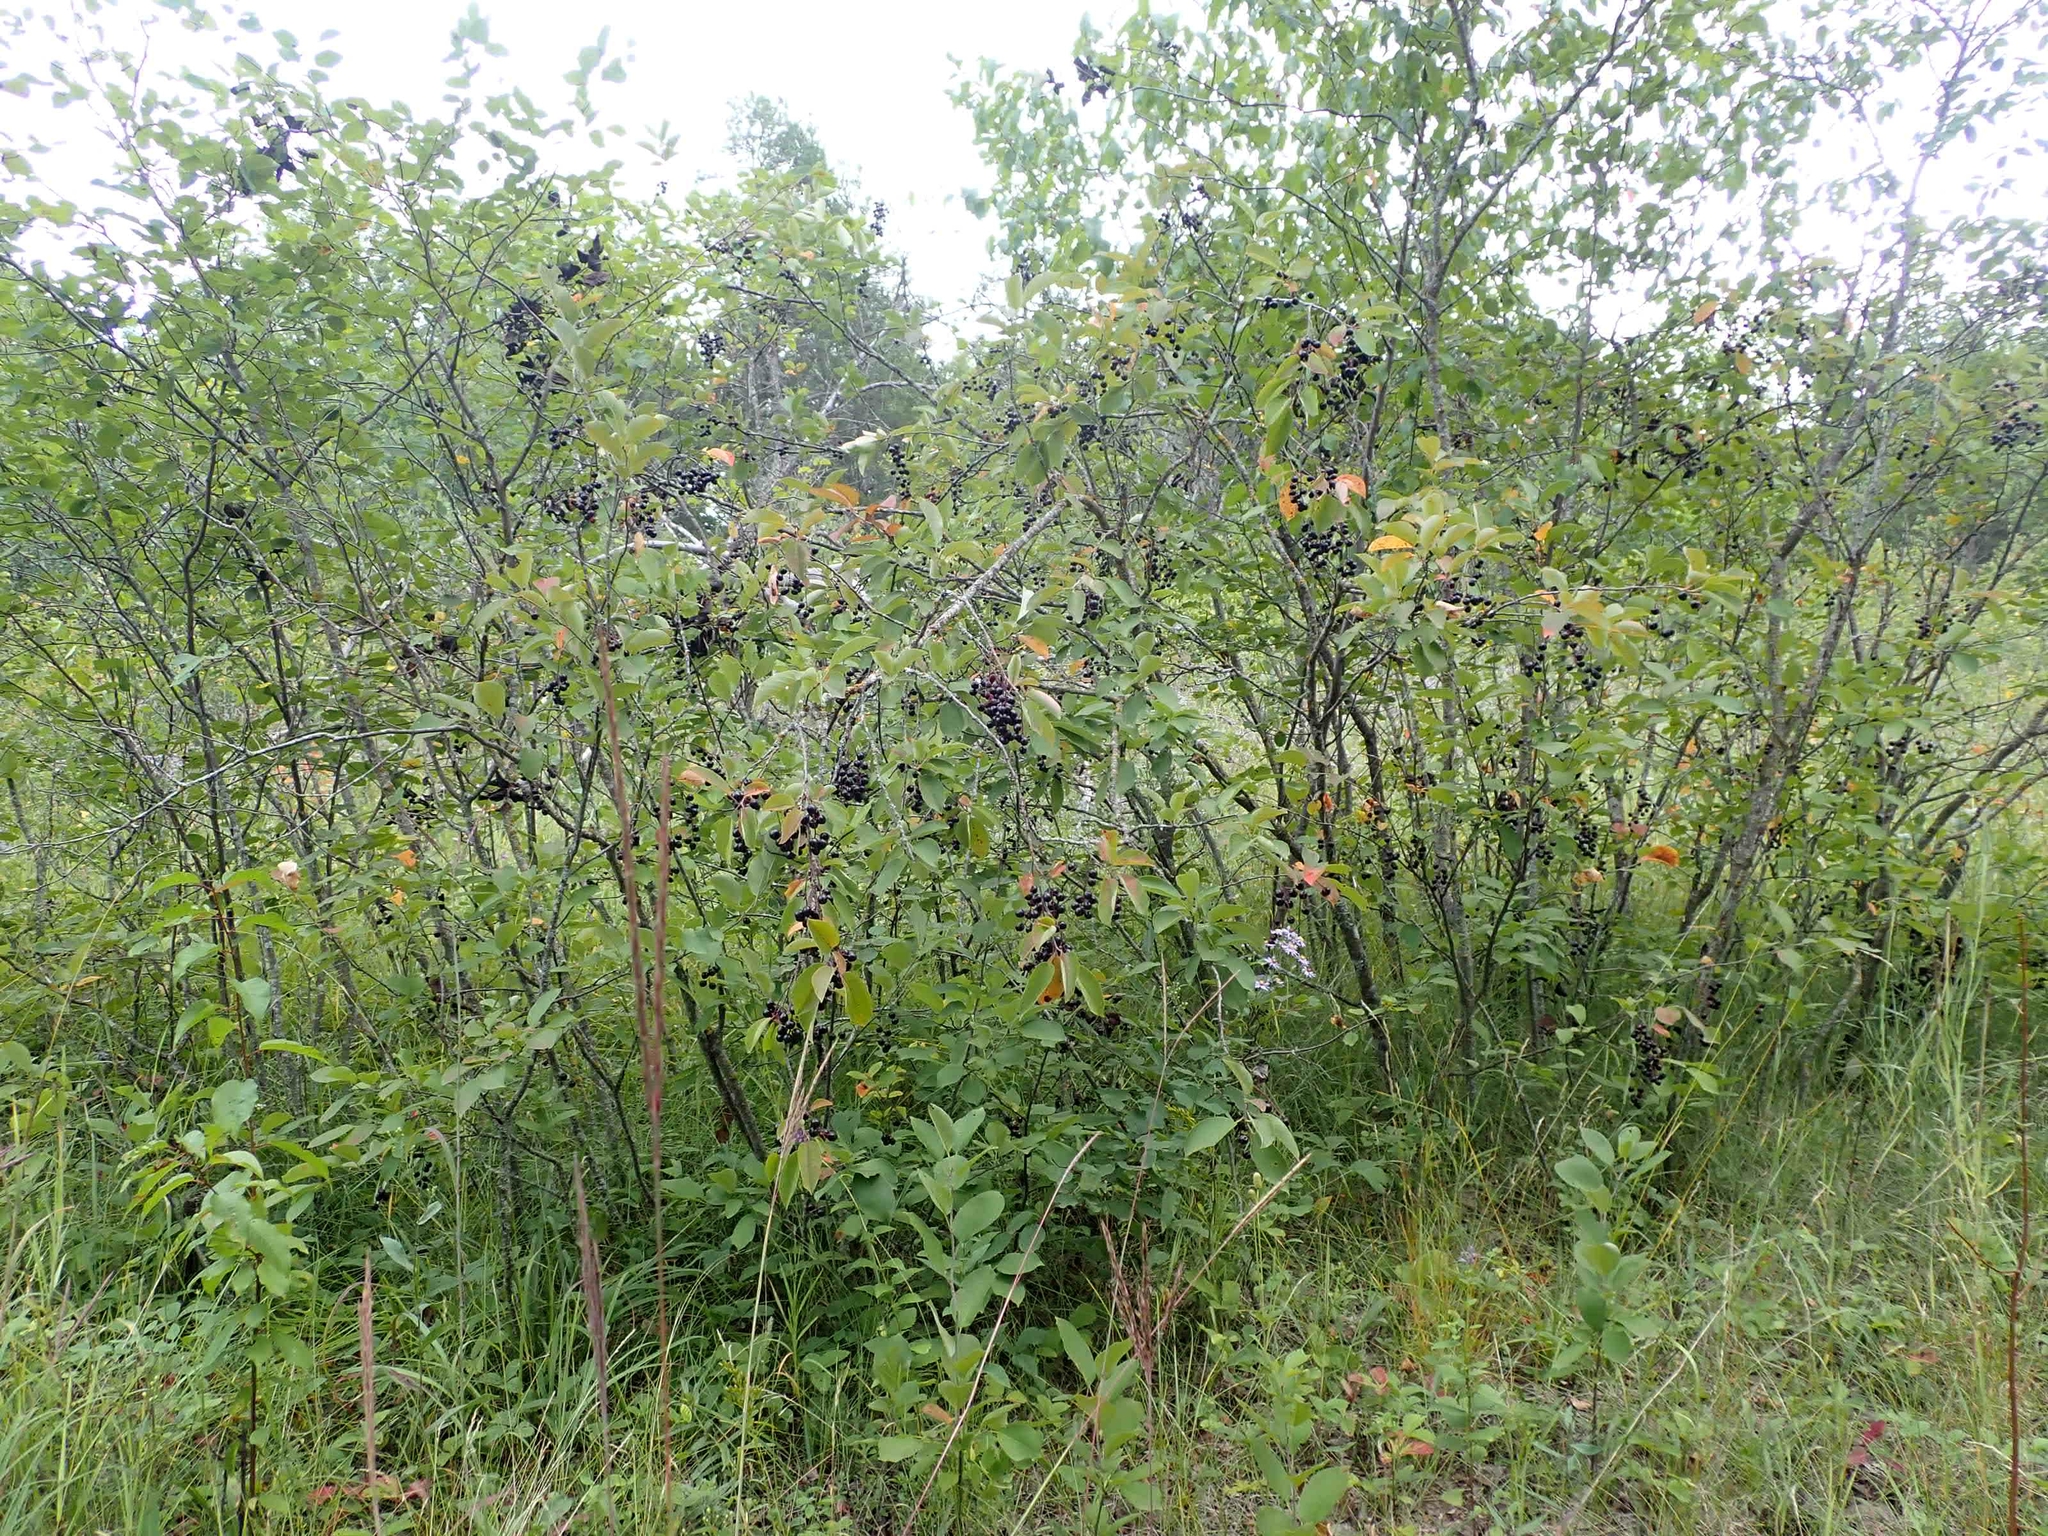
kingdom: Plantae
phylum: Tracheophyta
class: Magnoliopsida
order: Rosales
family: Rosaceae
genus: Prunus
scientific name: Prunus virginiana
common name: Chokecherry
